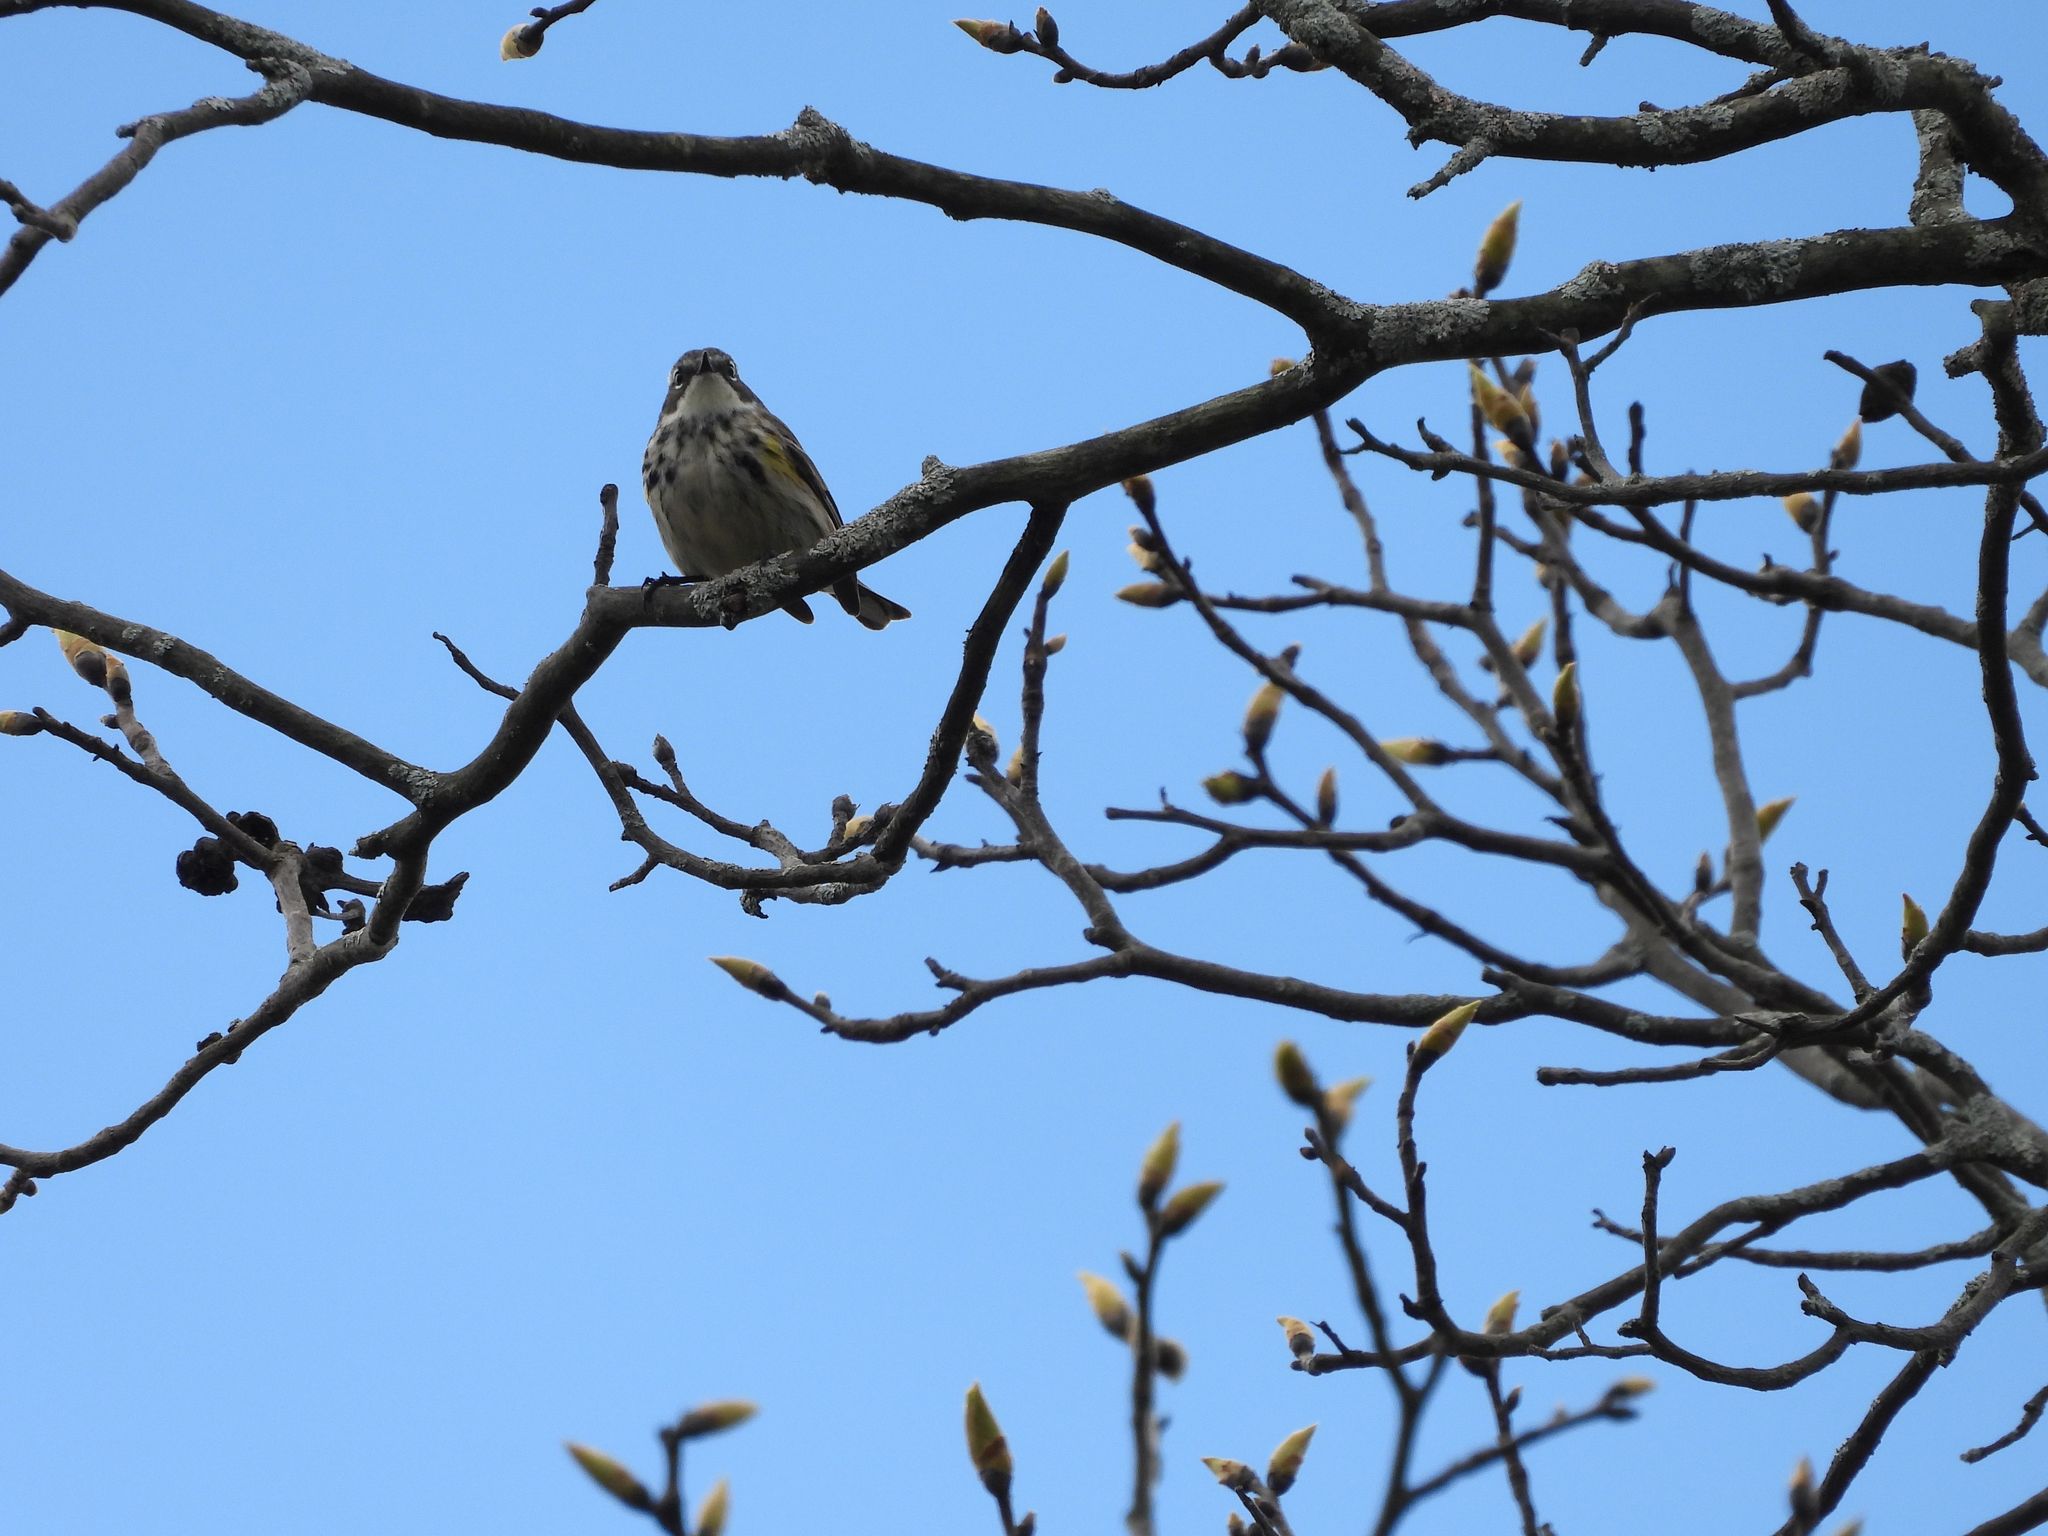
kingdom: Animalia
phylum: Chordata
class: Aves
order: Passeriformes
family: Parulidae
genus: Setophaga
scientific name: Setophaga coronata
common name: Myrtle warbler
